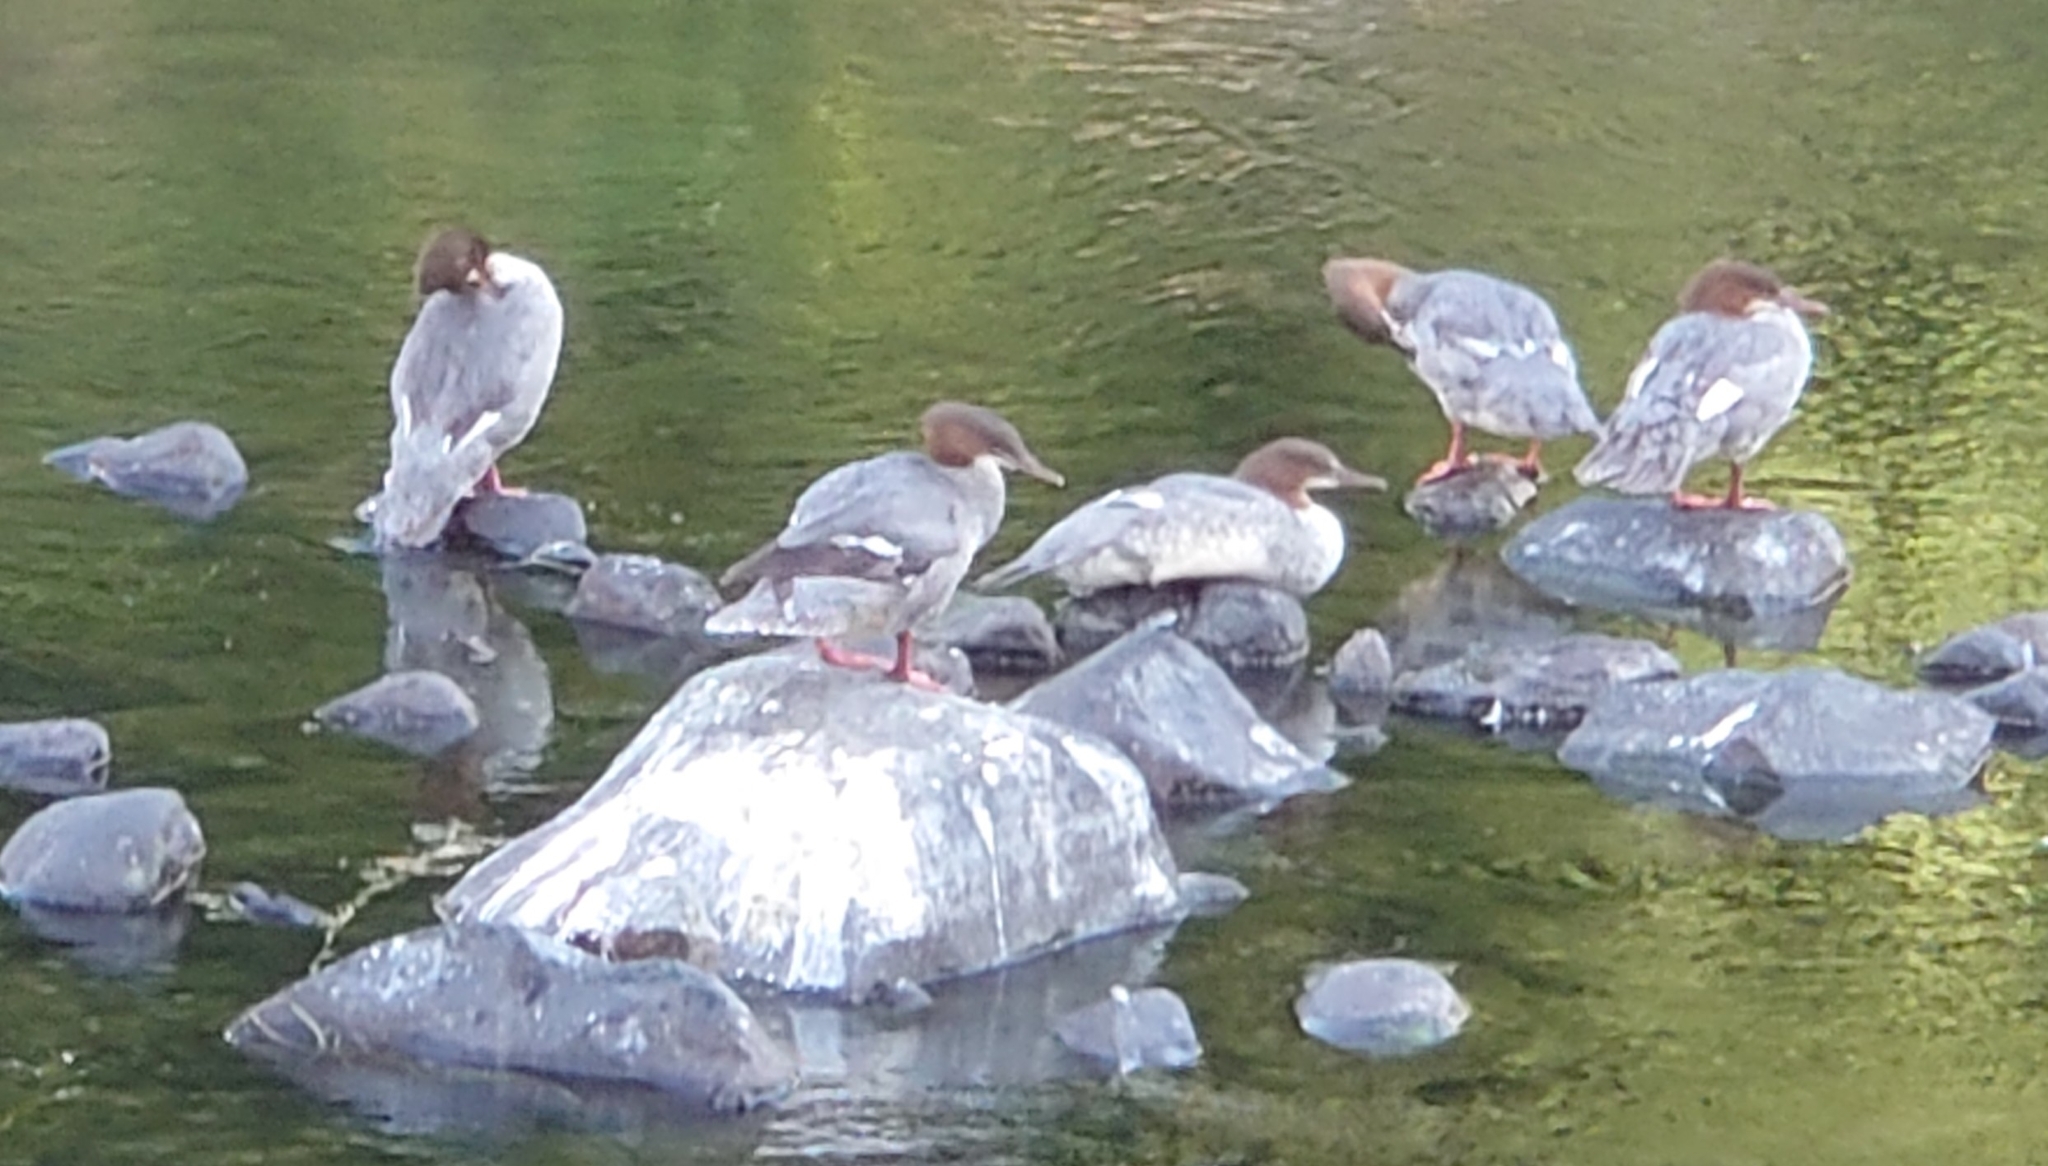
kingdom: Animalia
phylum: Chordata
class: Aves
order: Anseriformes
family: Anatidae
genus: Mergus
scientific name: Mergus merganser
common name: Common merganser
